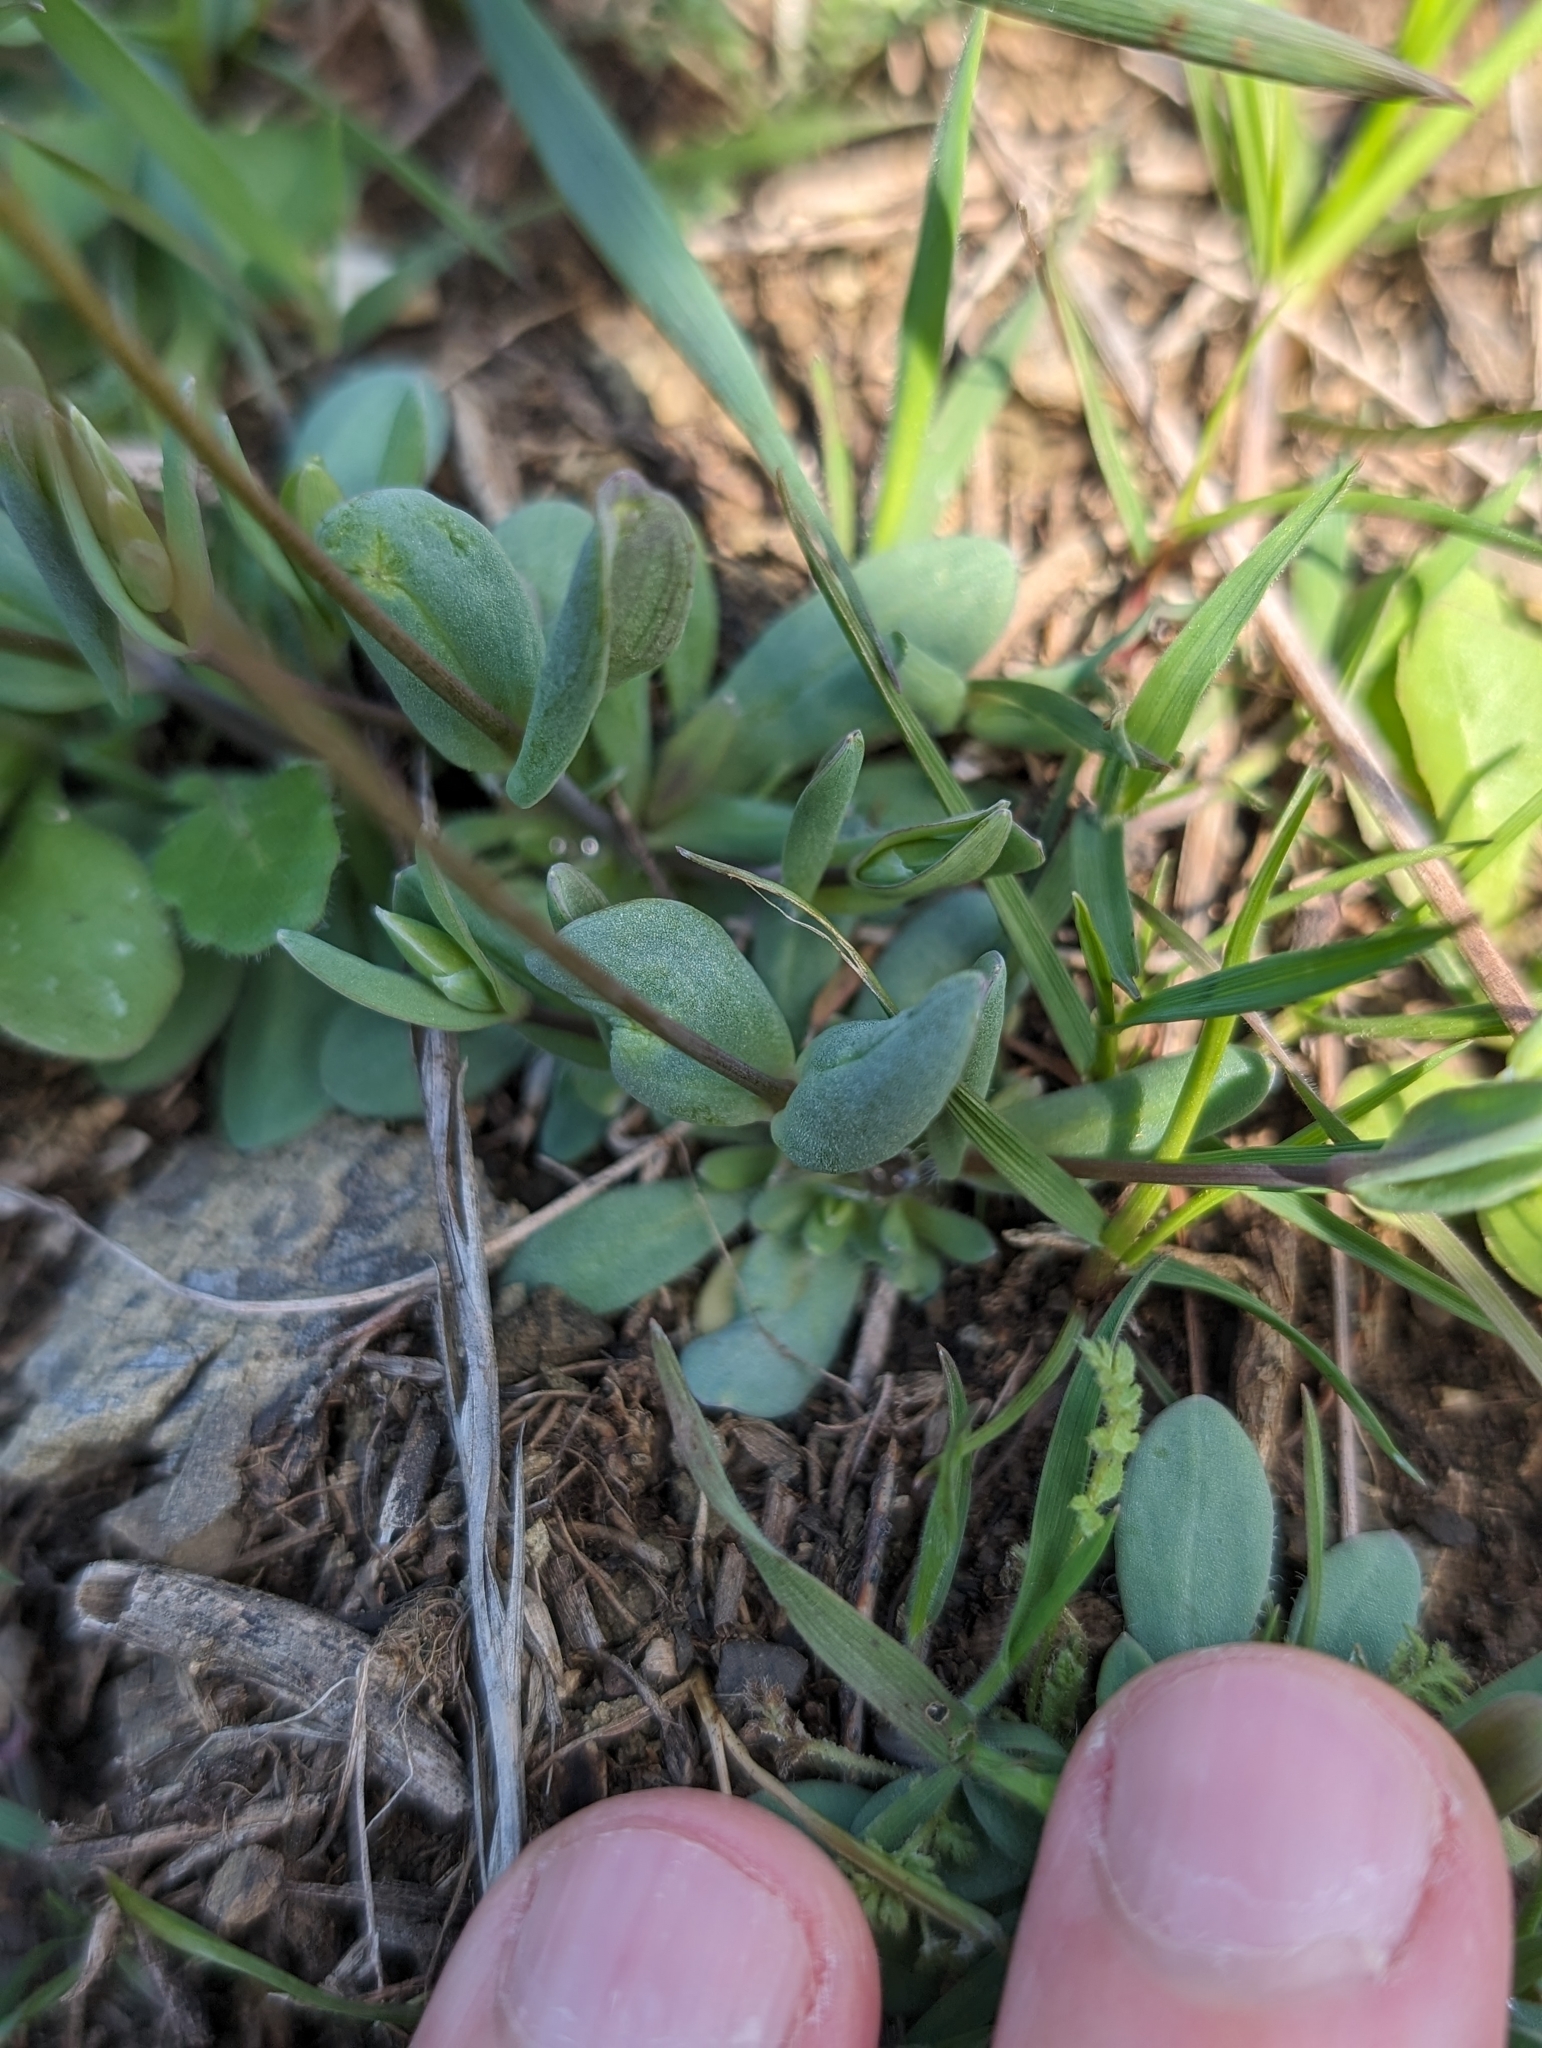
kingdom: Plantae
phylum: Tracheophyta
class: Magnoliopsida
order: Caryophyllales
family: Caryophyllaceae
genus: Holosteum
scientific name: Holosteum umbellatum
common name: Jagged chickweed
